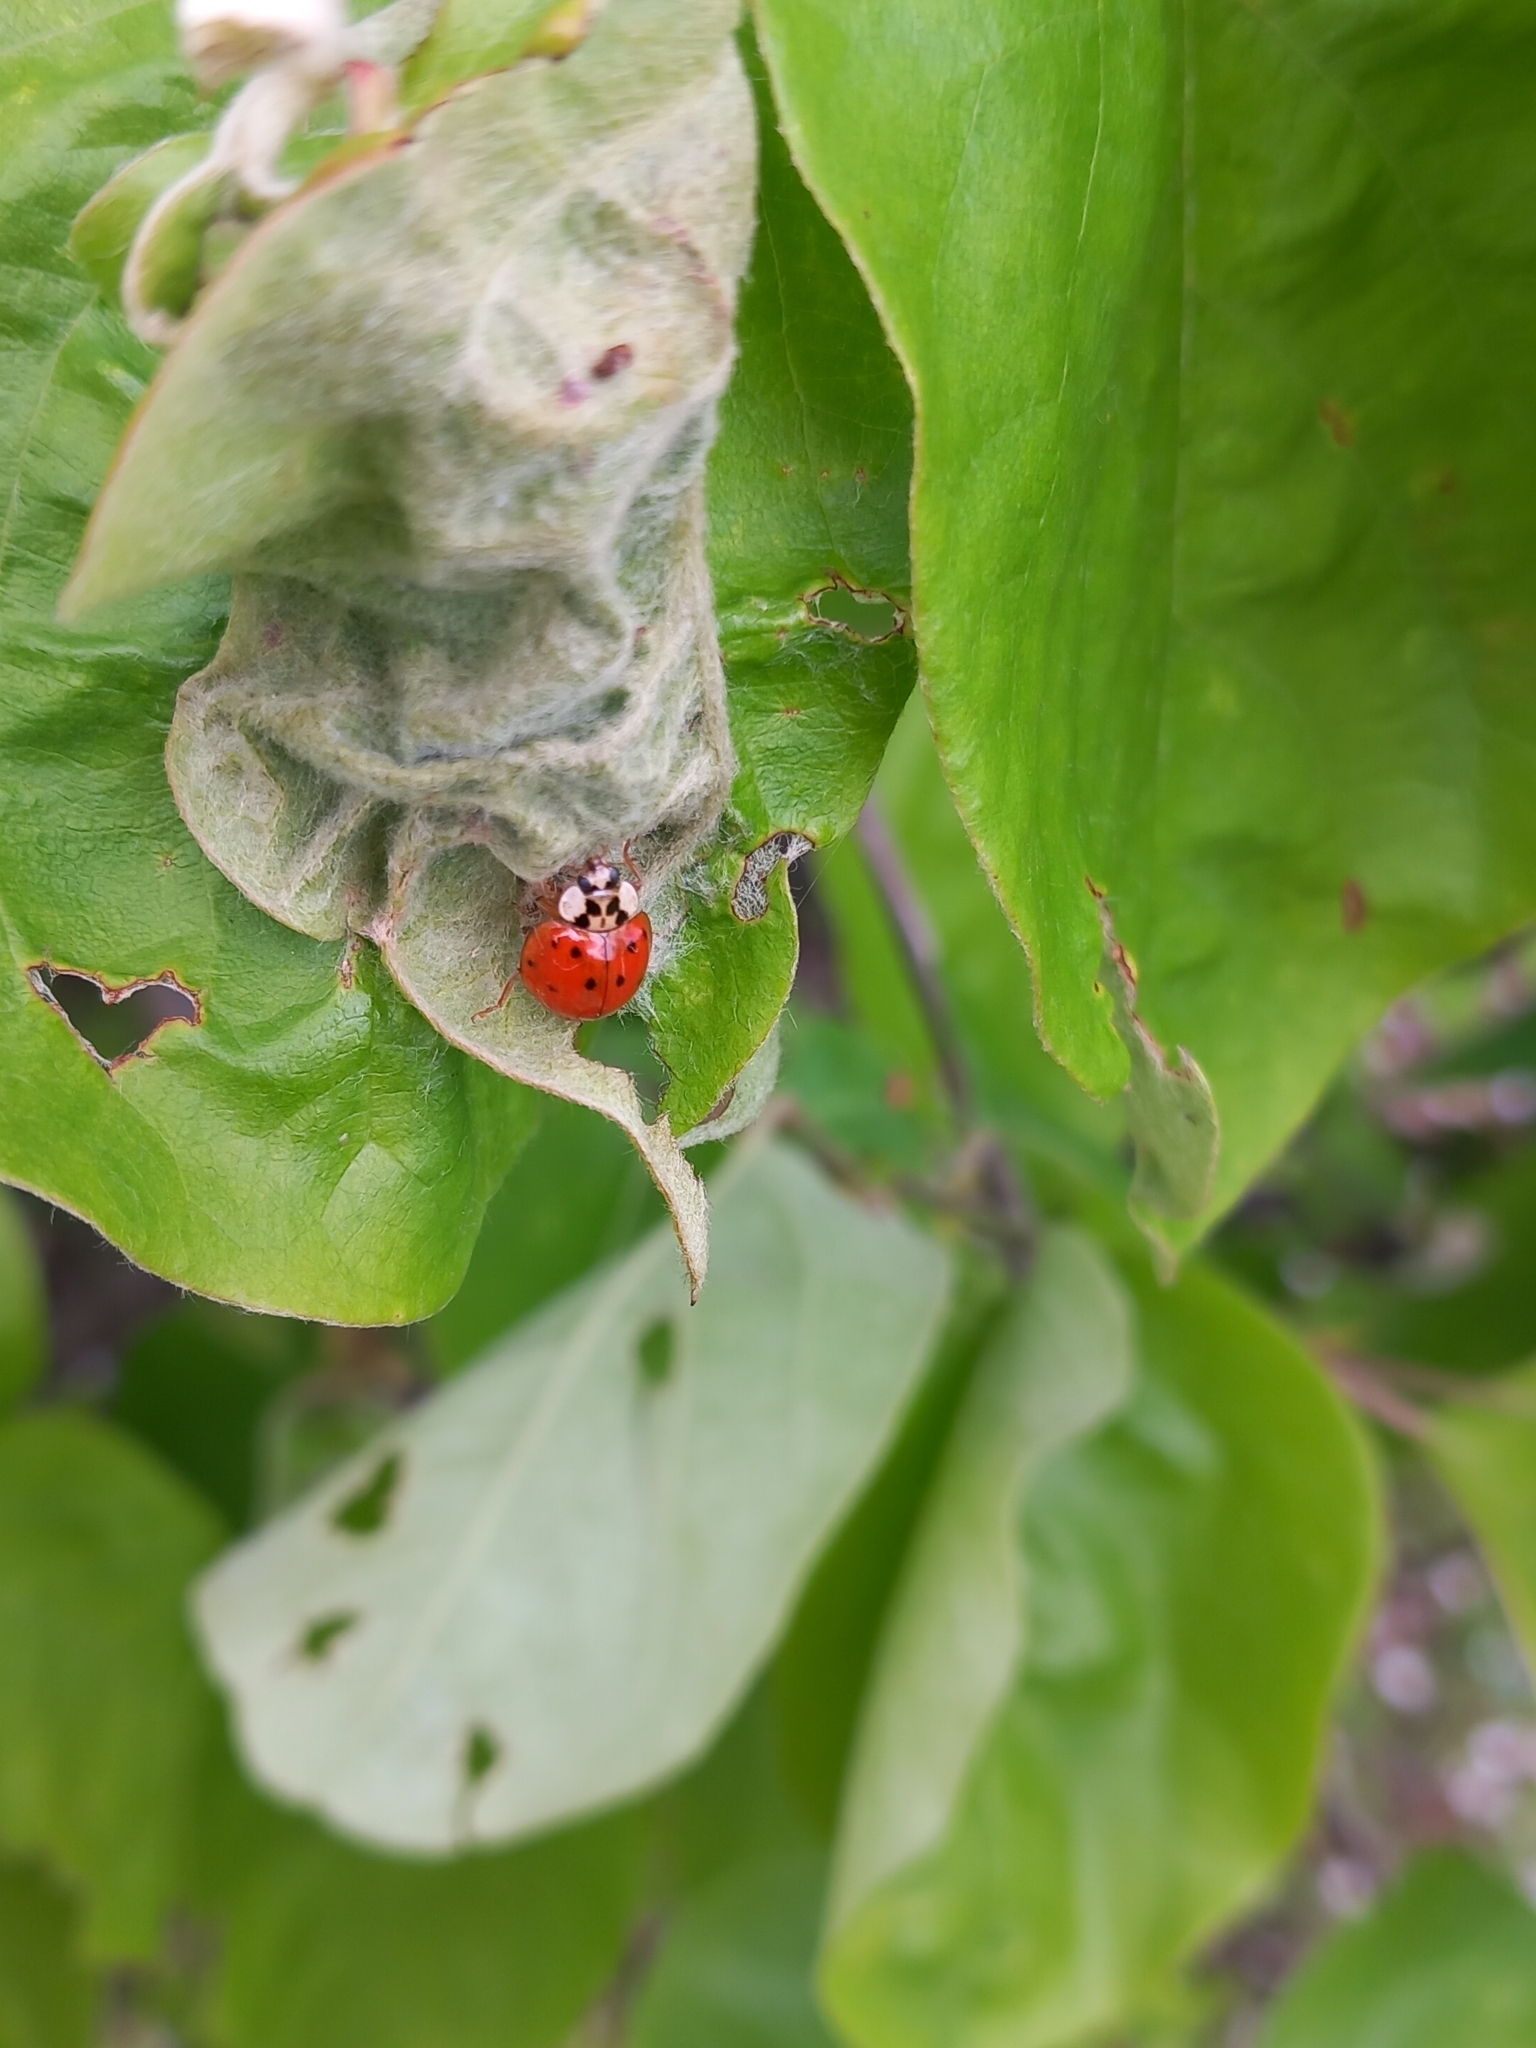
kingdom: Animalia
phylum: Arthropoda
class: Insecta
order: Coleoptera
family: Coccinellidae
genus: Harmonia
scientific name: Harmonia axyridis
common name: Harlequin ladybird
